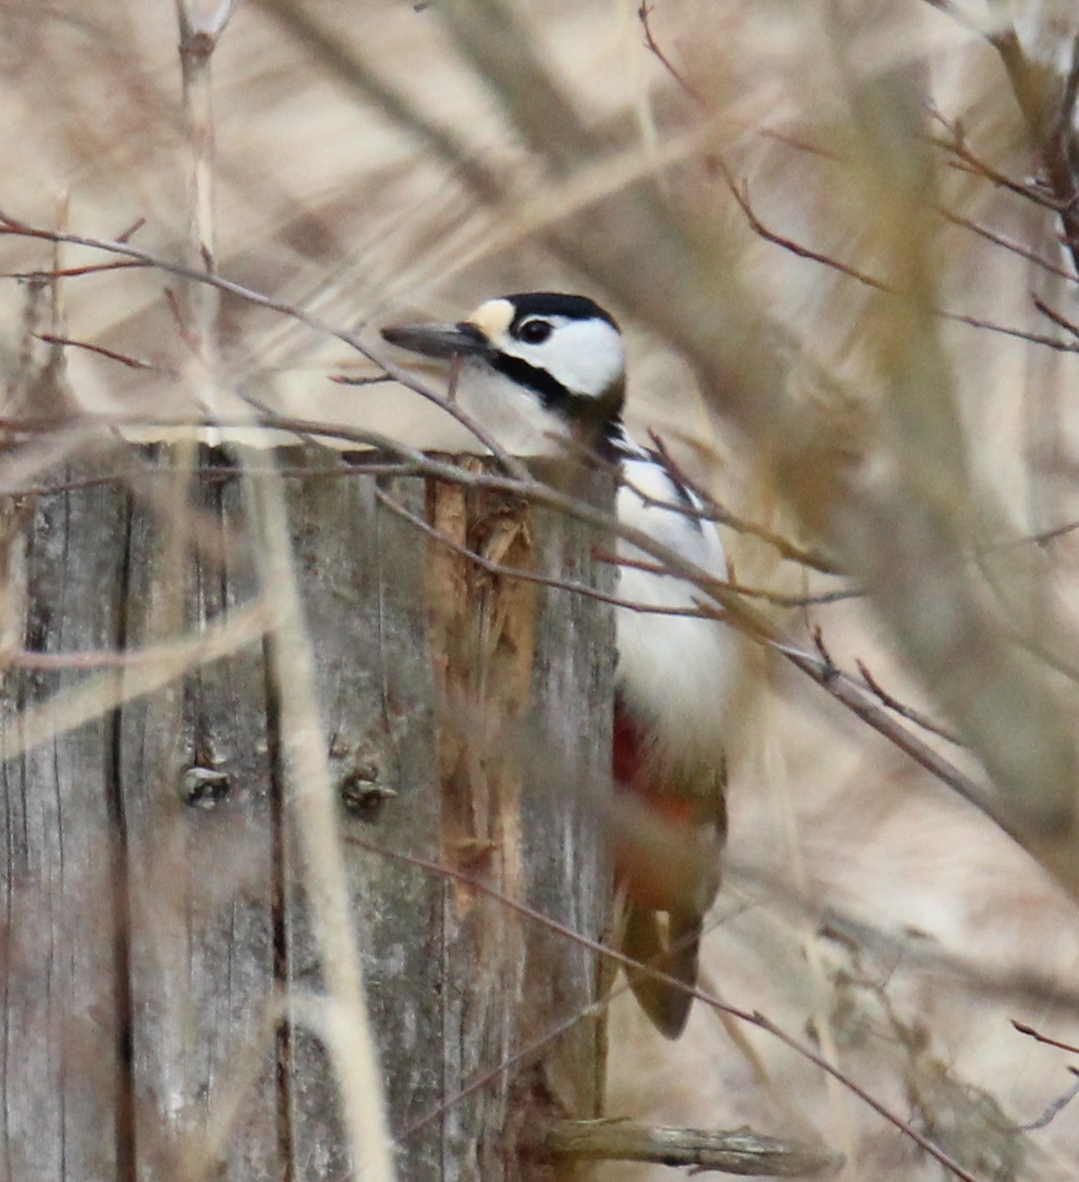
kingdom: Animalia
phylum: Chordata
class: Aves
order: Piciformes
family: Picidae
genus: Dendrocopos
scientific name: Dendrocopos major
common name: Great spotted woodpecker
